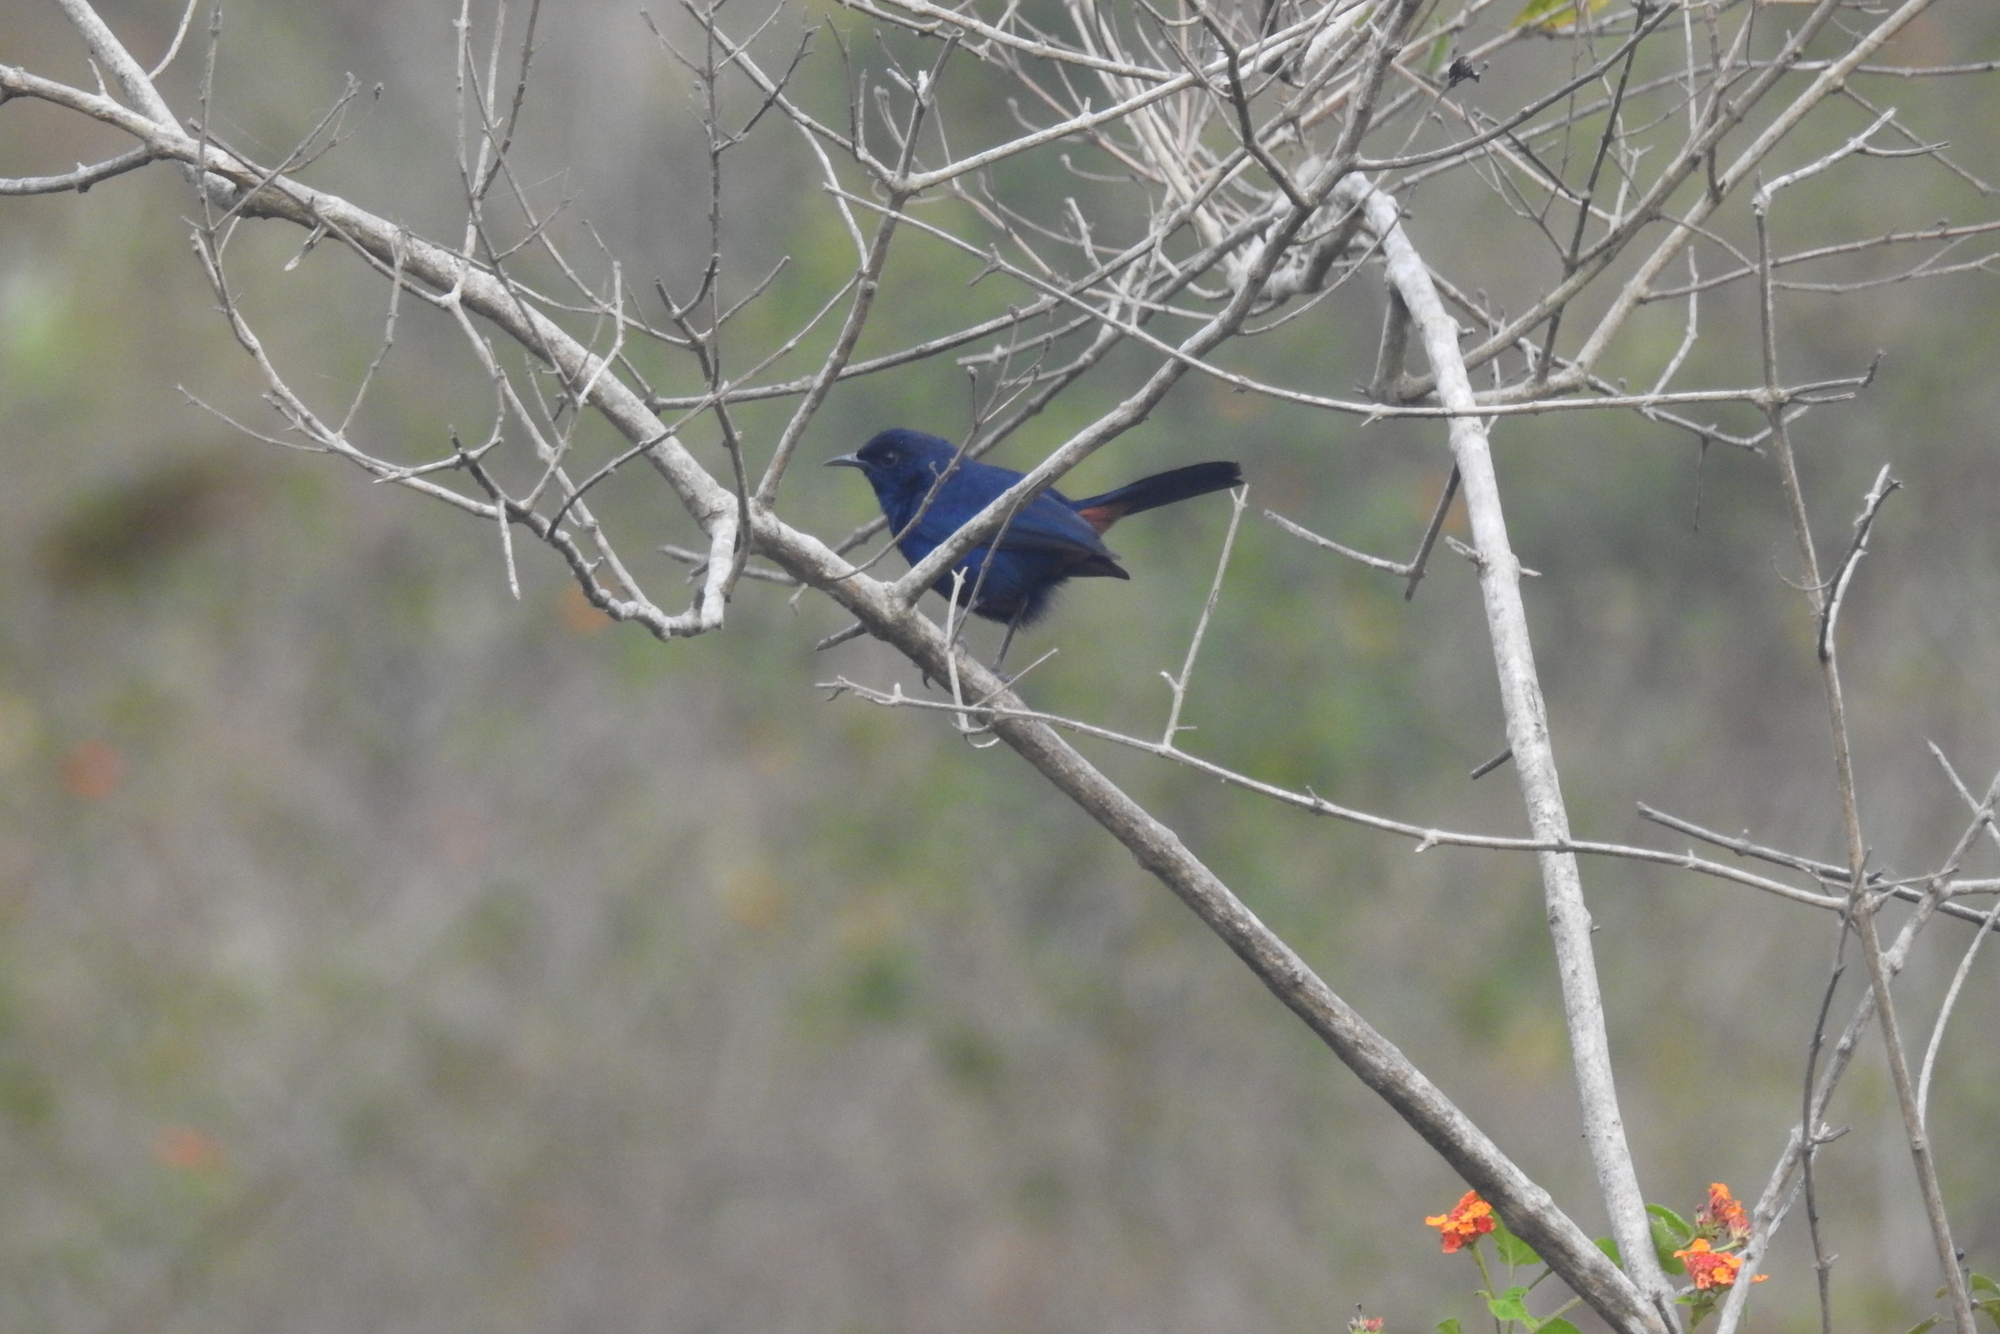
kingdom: Animalia
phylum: Chordata
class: Aves
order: Passeriformes
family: Muscicapidae
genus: Saxicoloides
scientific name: Saxicoloides fulicatus
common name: Indian robin
